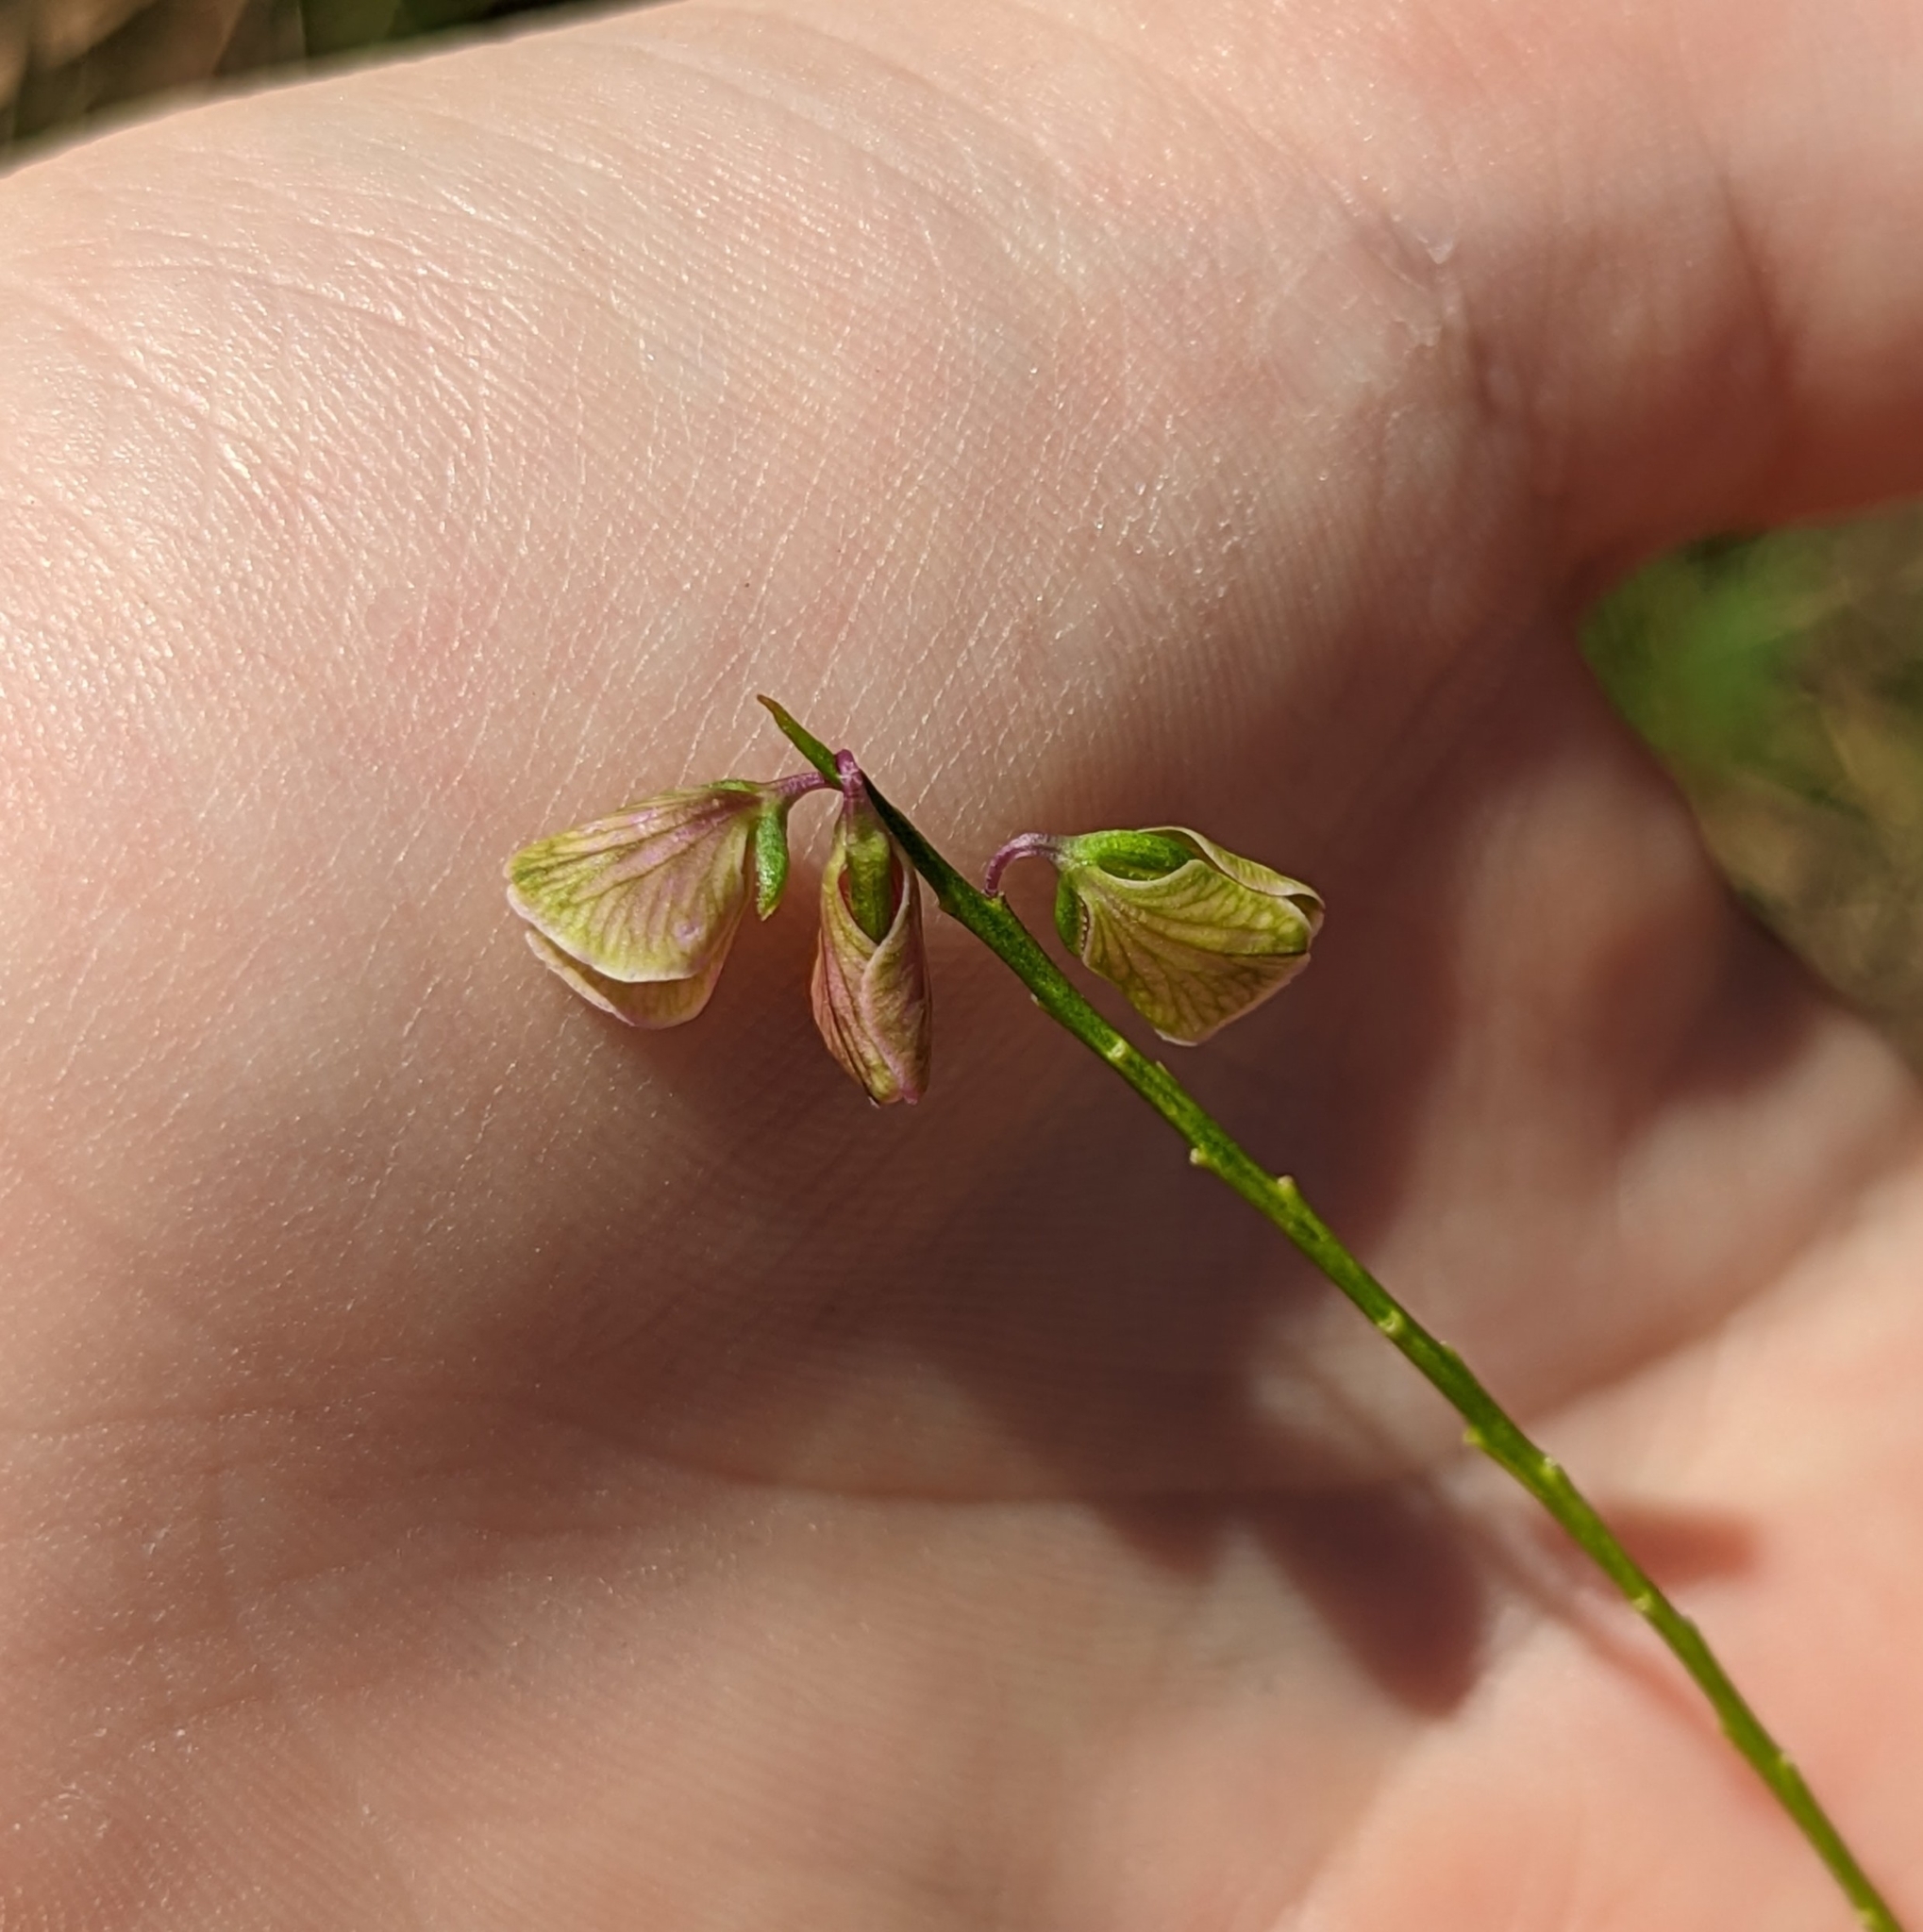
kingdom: Plantae
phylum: Tracheophyta
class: Magnoliopsida
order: Fabales
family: Polygalaceae
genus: Asemeia
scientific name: Asemeia grandiflora
